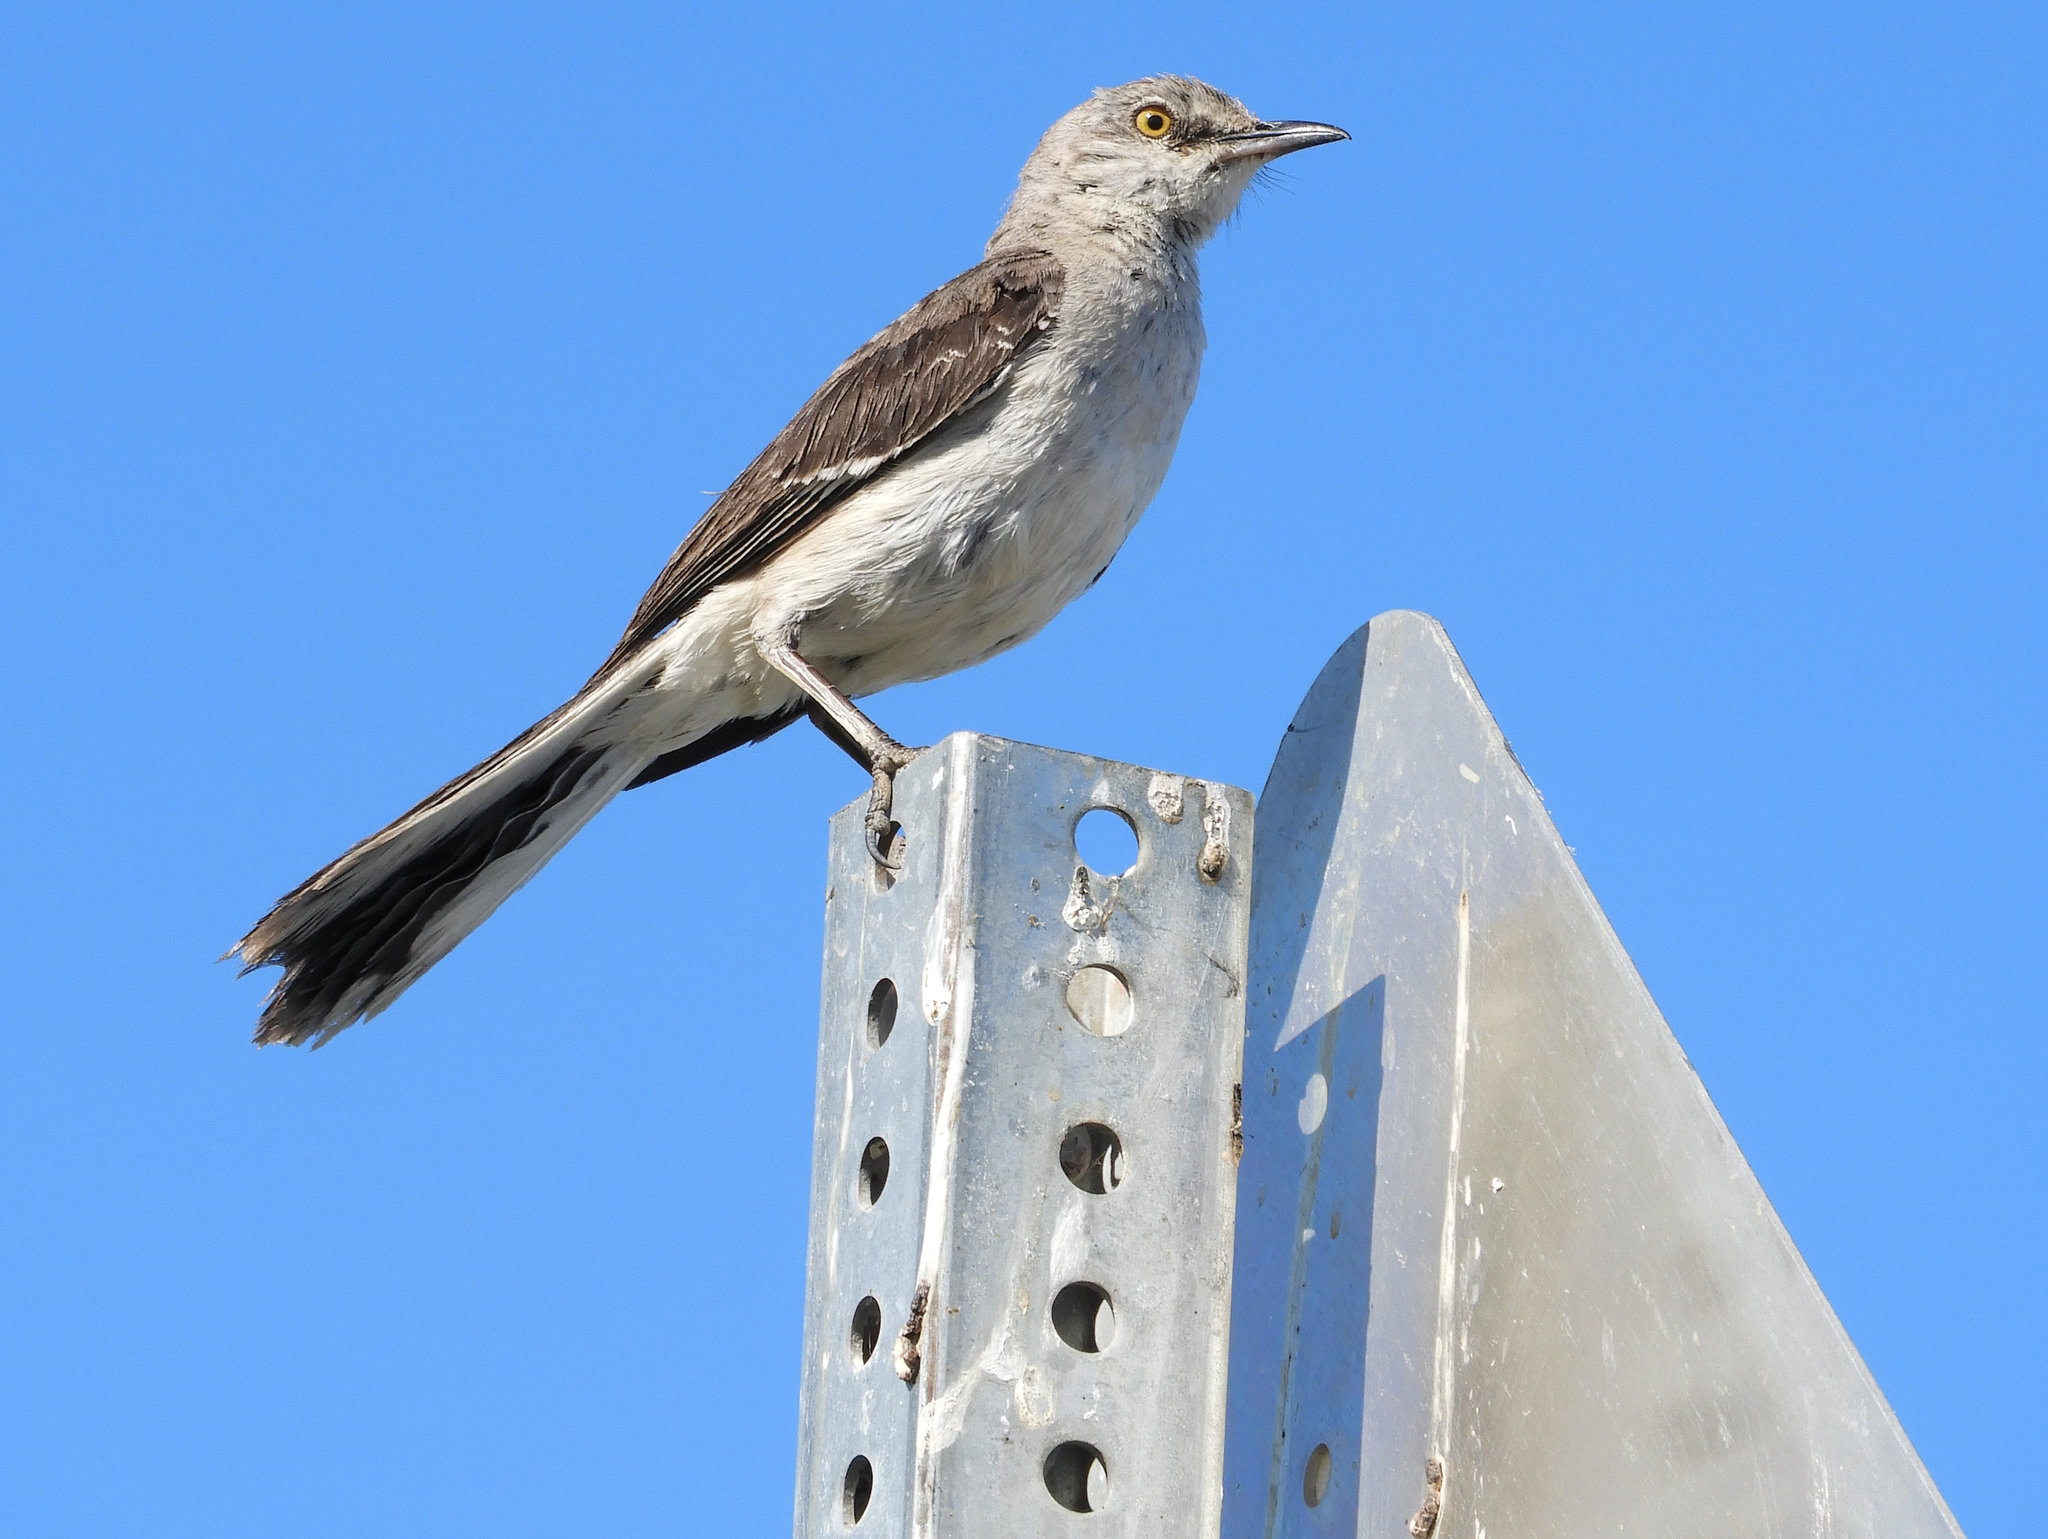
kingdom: Animalia
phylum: Chordata
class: Aves
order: Passeriformes
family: Mimidae
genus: Mimus
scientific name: Mimus polyglottos
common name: Northern mockingbird
